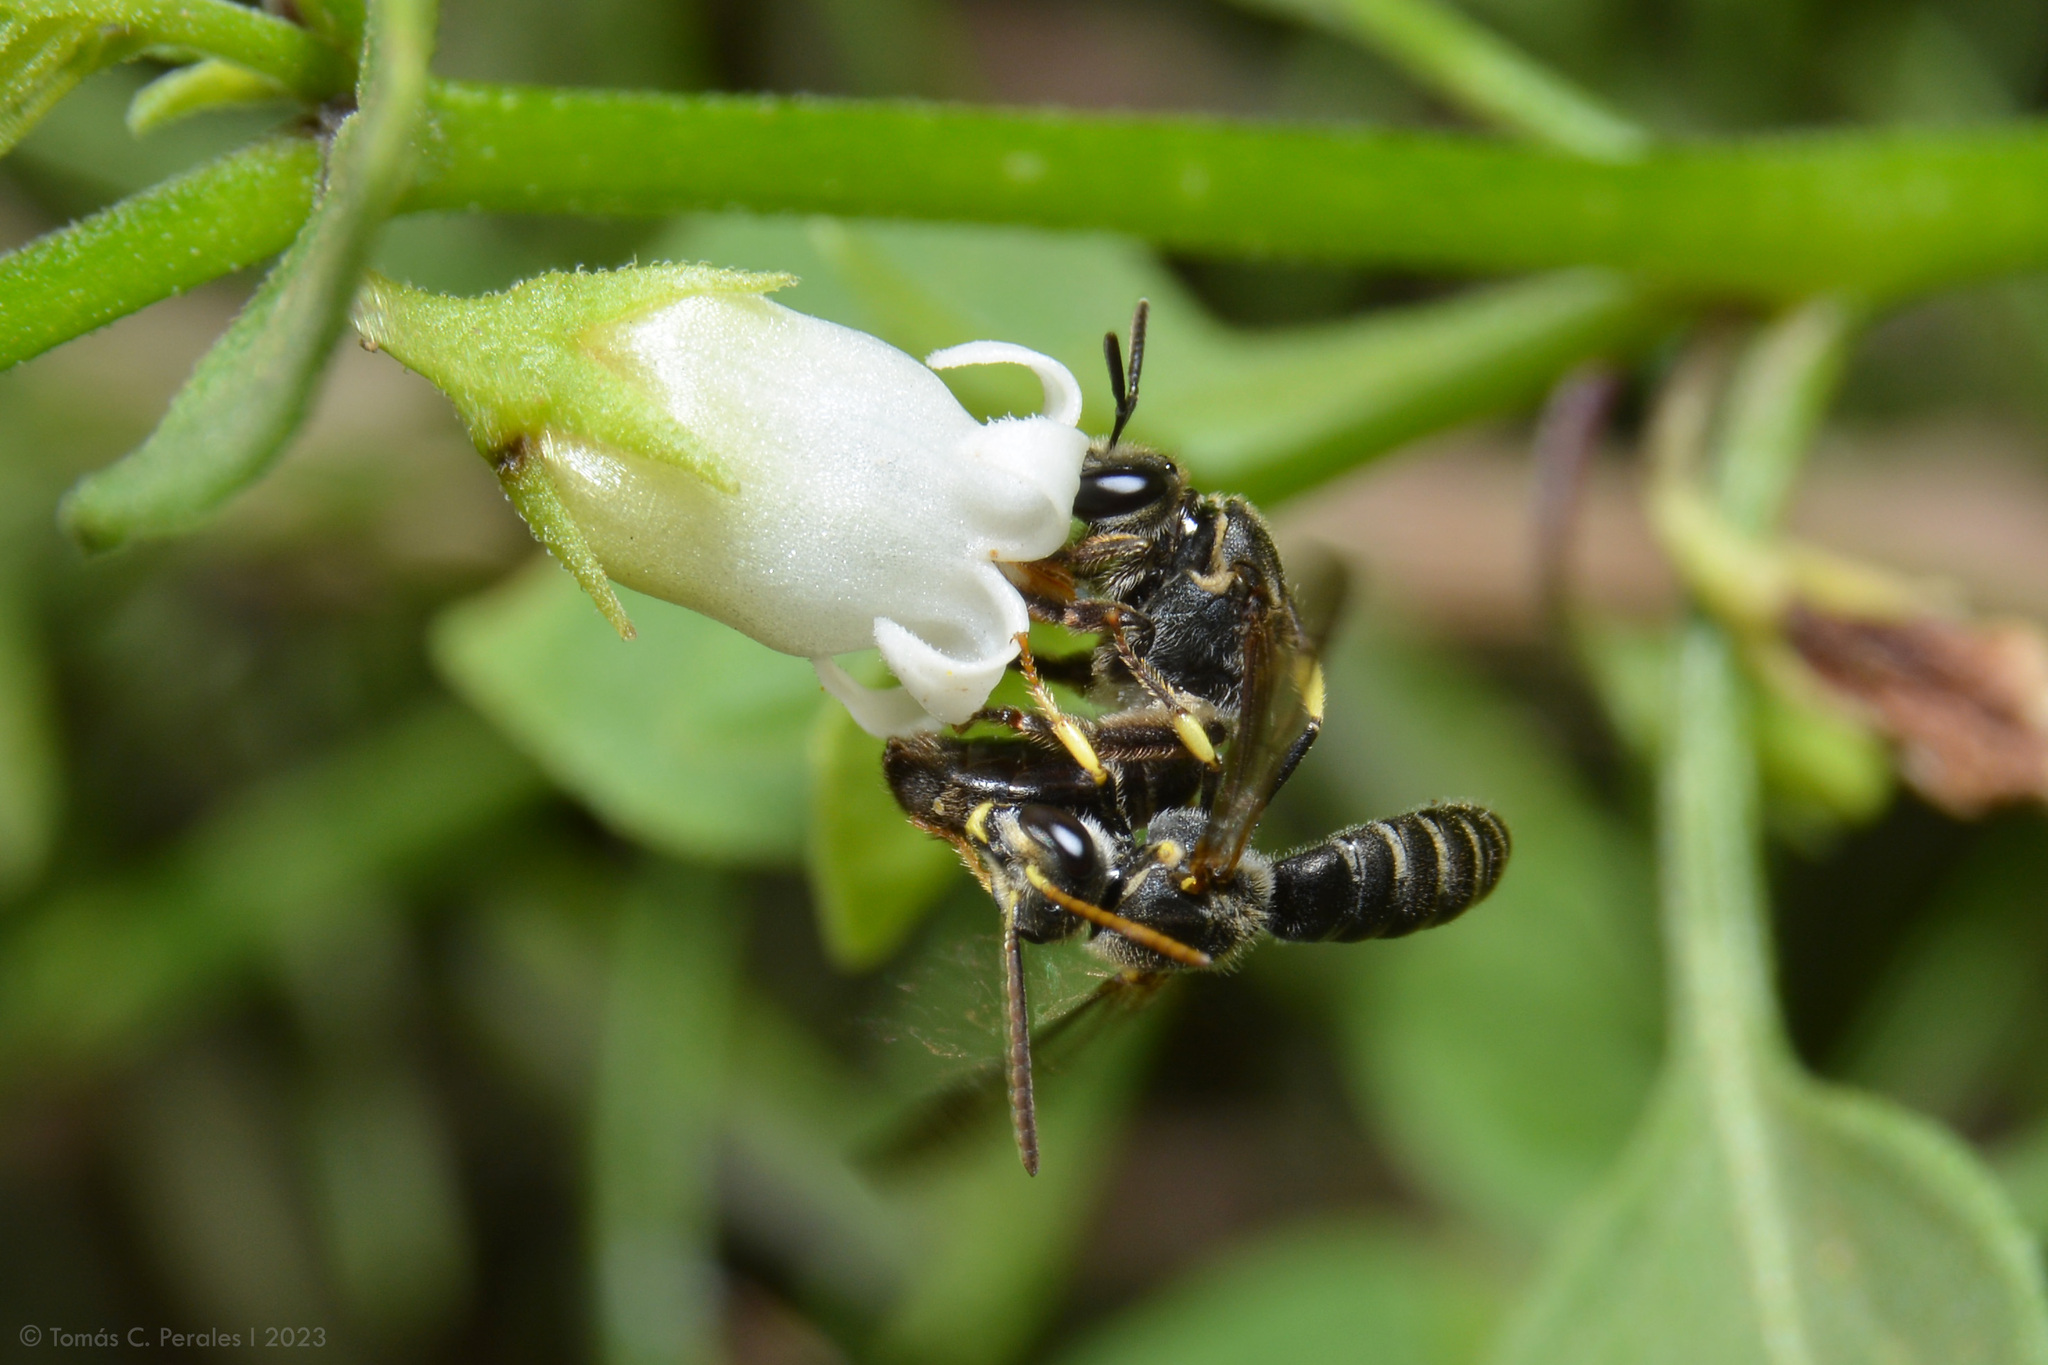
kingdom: Plantae
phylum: Tracheophyta
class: Magnoliopsida
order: Solanales
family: Solanaceae
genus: Salpichroa
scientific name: Salpichroa origanifolia
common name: Lily-of-the-valley-vine
